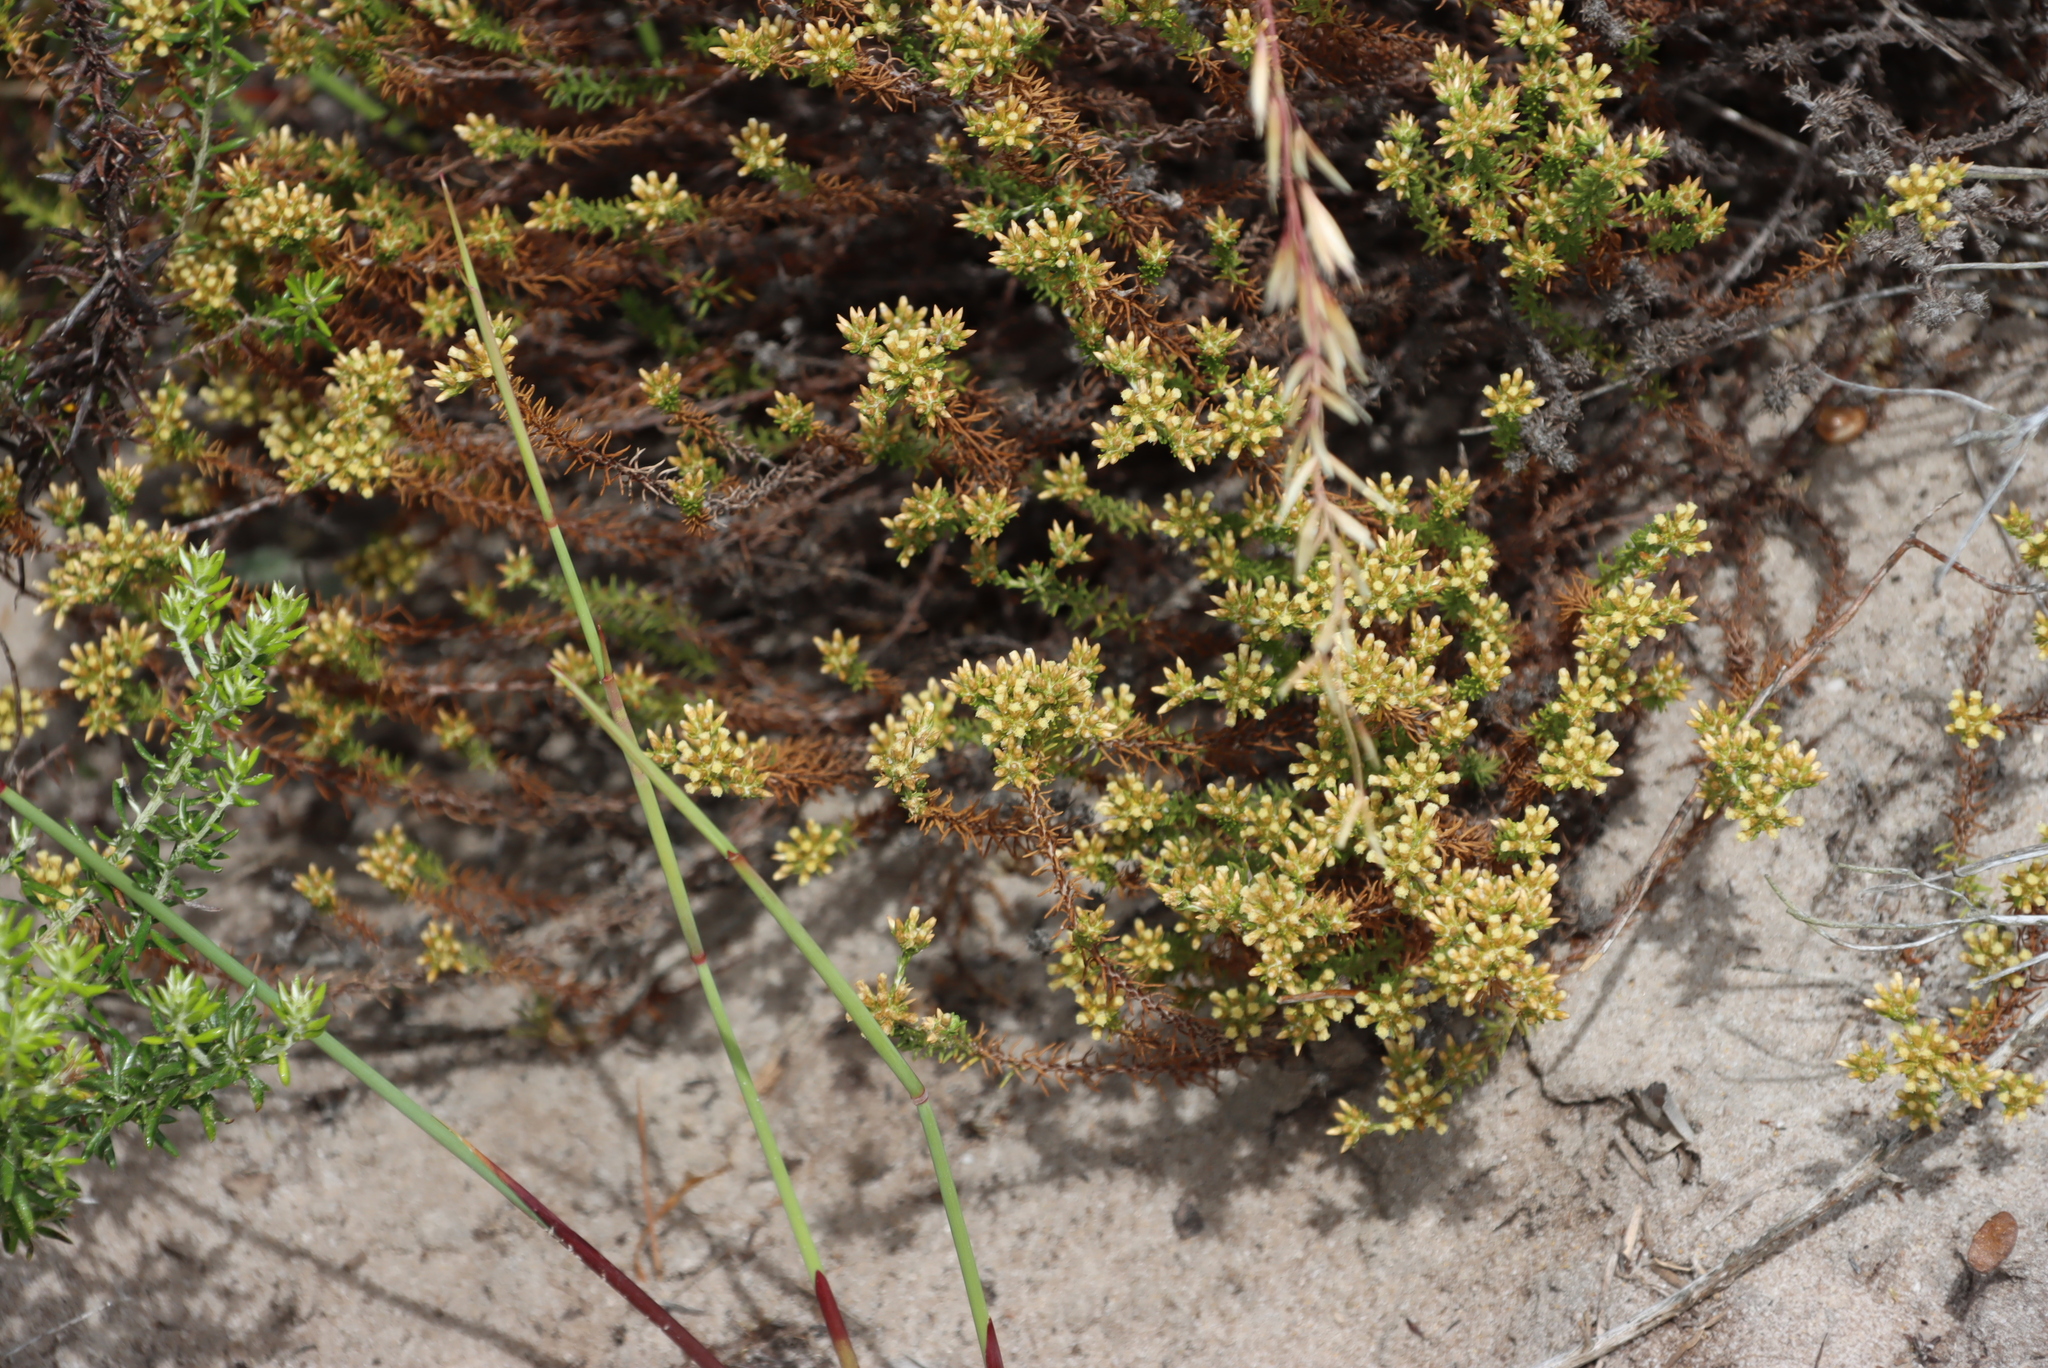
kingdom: Plantae
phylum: Tracheophyta
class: Magnoliopsida
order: Asterales
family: Asteraceae
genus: Helichrysum
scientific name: Helichrysum niveum
